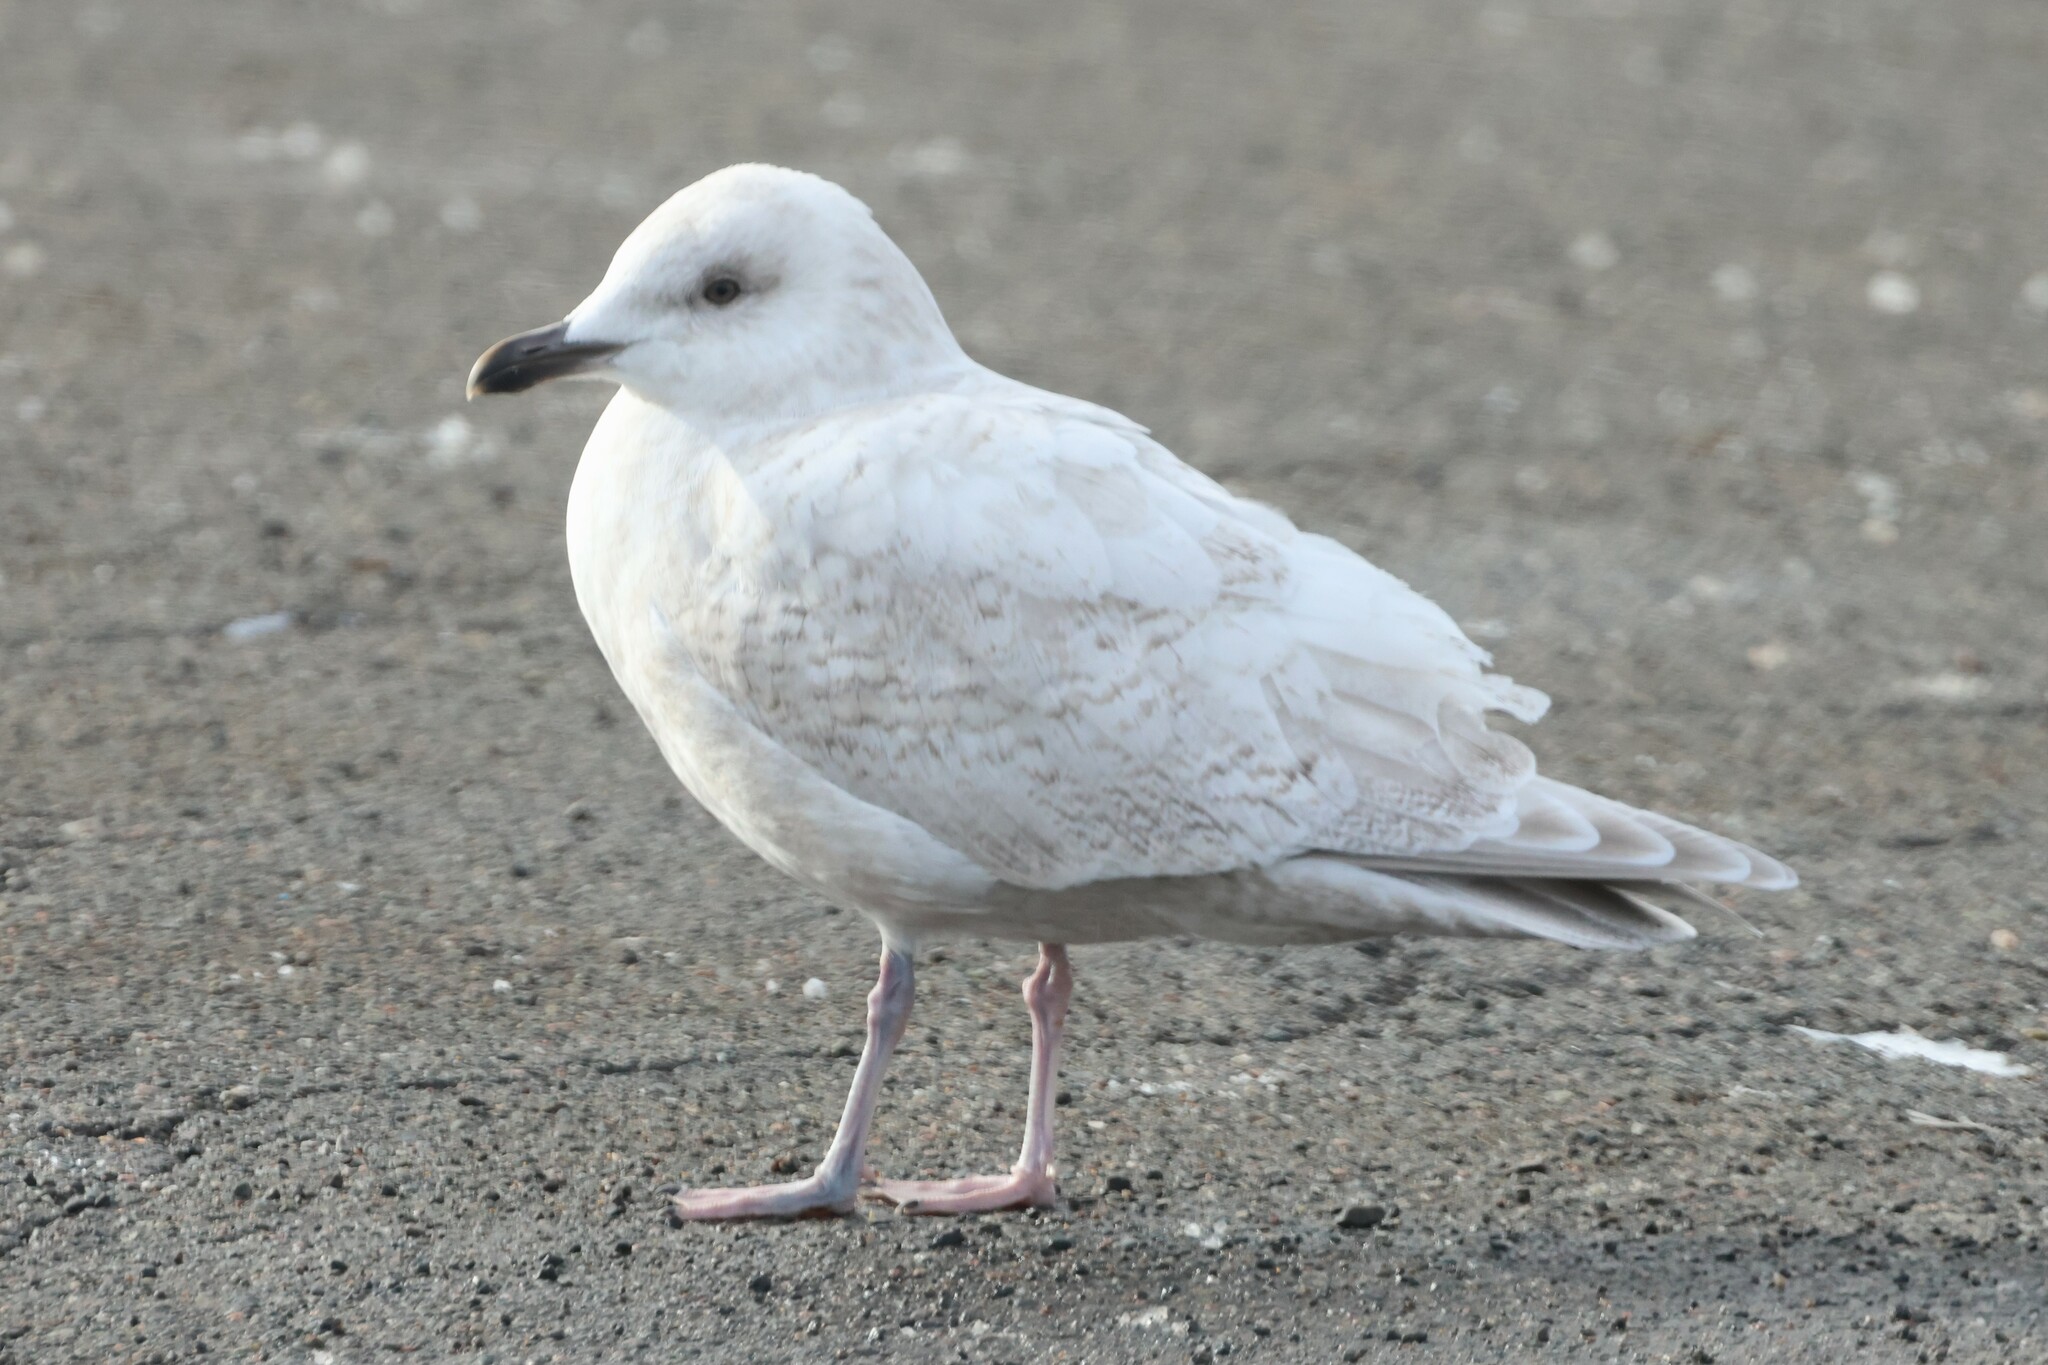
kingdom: Animalia
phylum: Chordata
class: Aves
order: Charadriiformes
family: Laridae
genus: Larus
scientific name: Larus glaucoides
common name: Iceland gull
